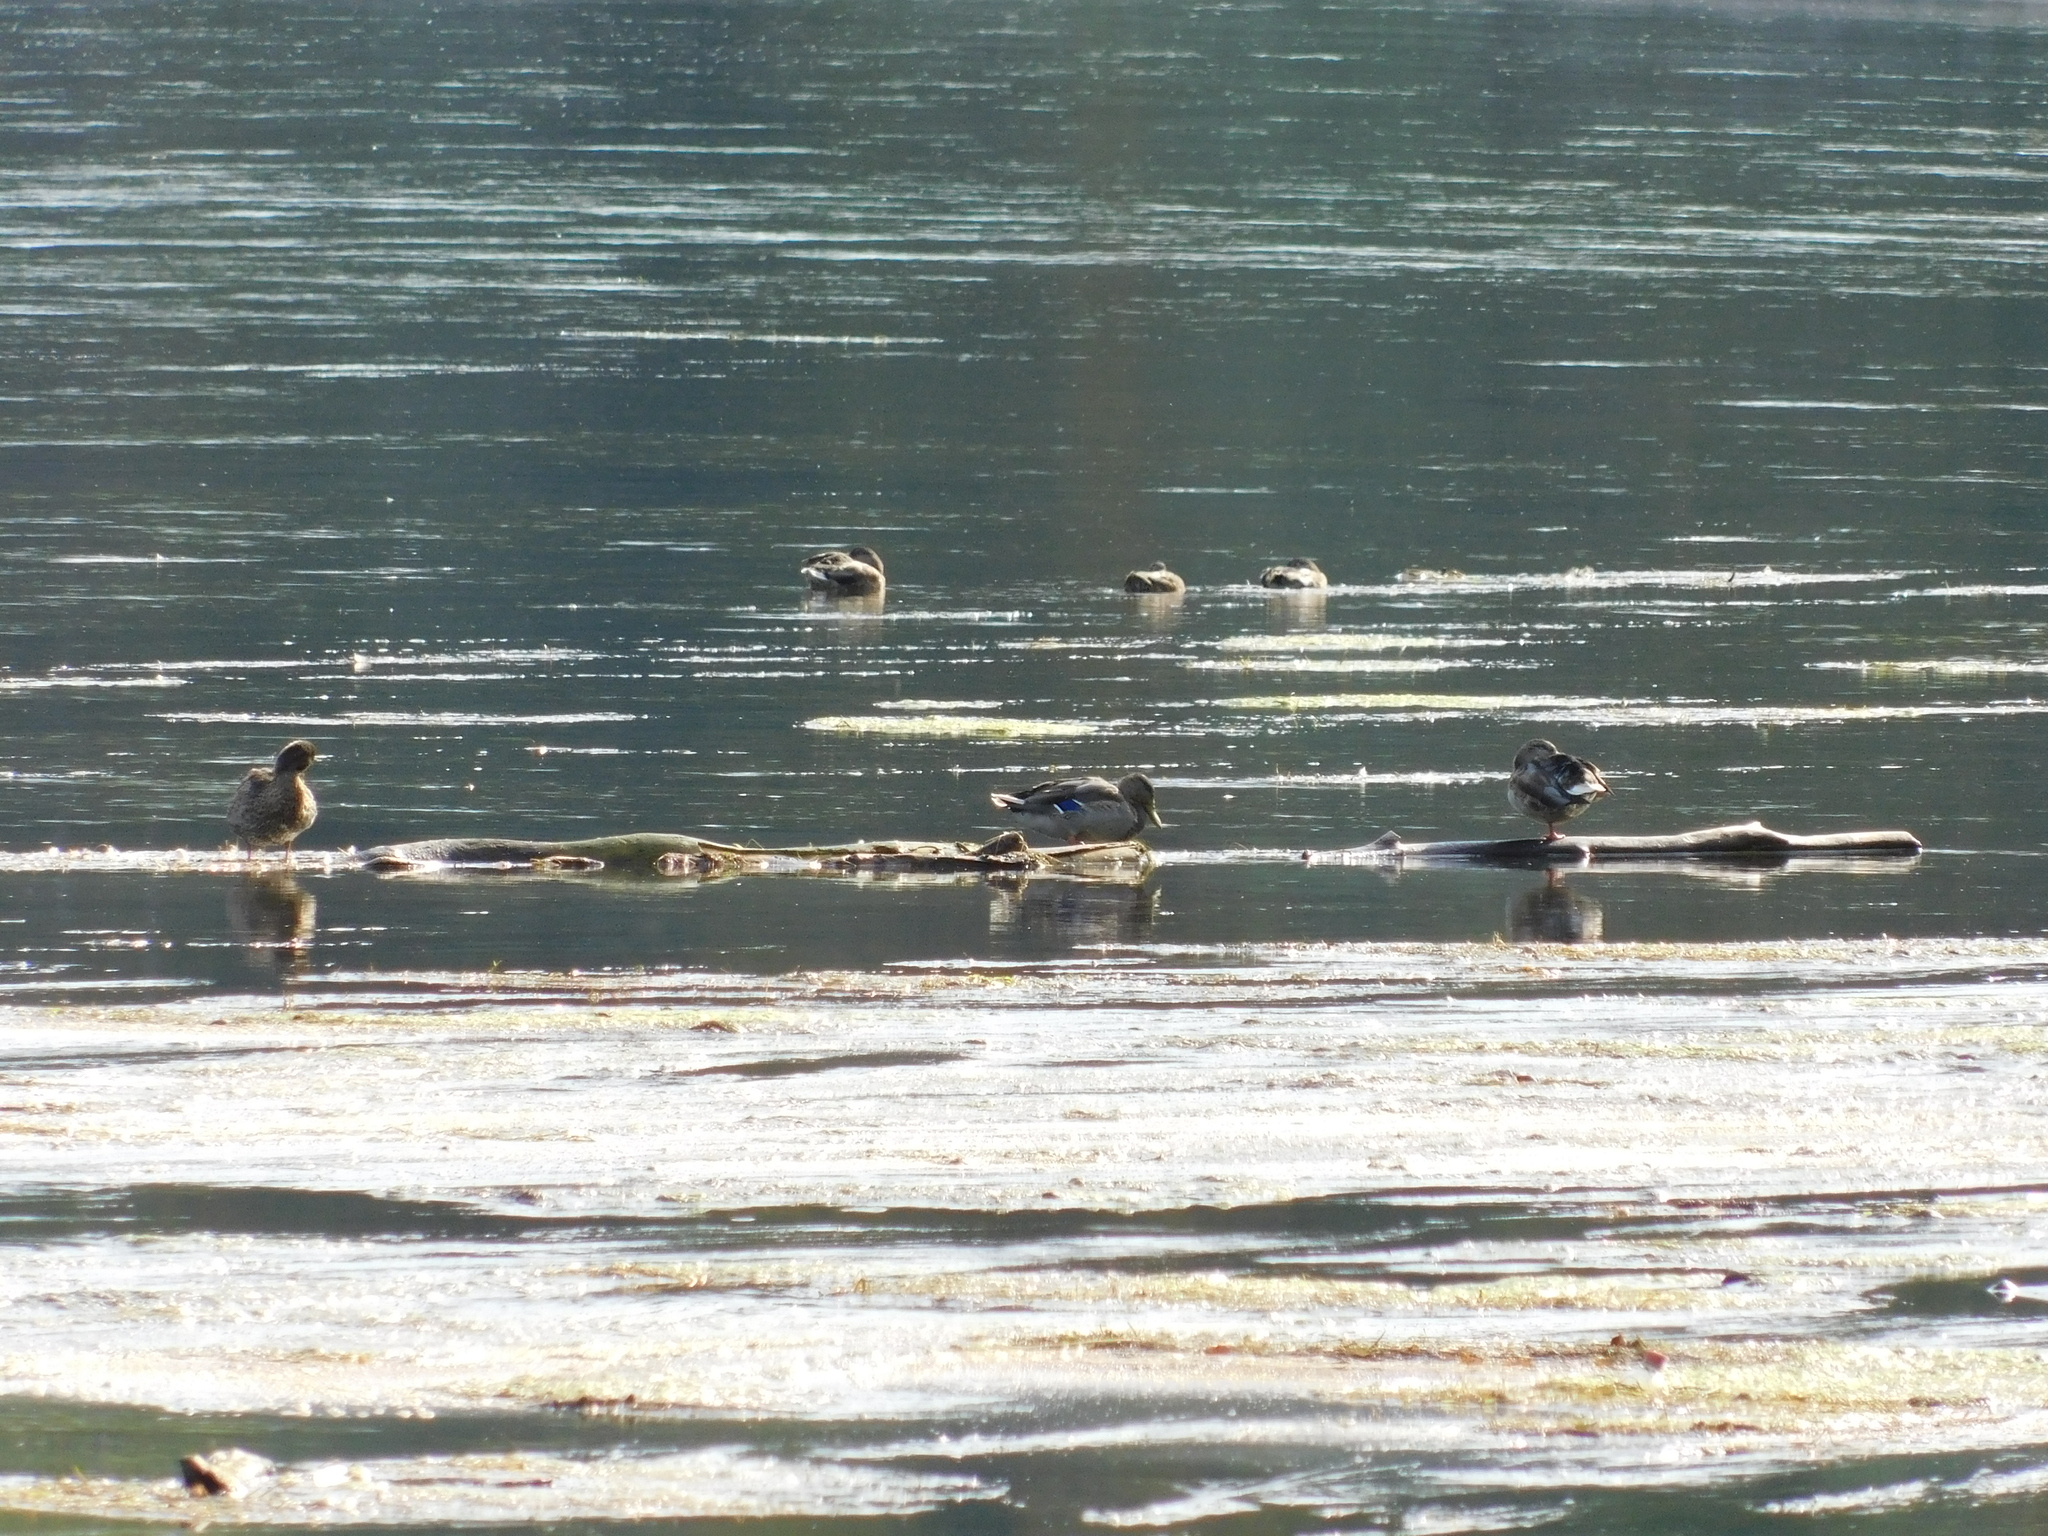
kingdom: Animalia
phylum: Chordata
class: Aves
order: Anseriformes
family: Anatidae
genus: Anas
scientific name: Anas platyrhynchos
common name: Mallard
